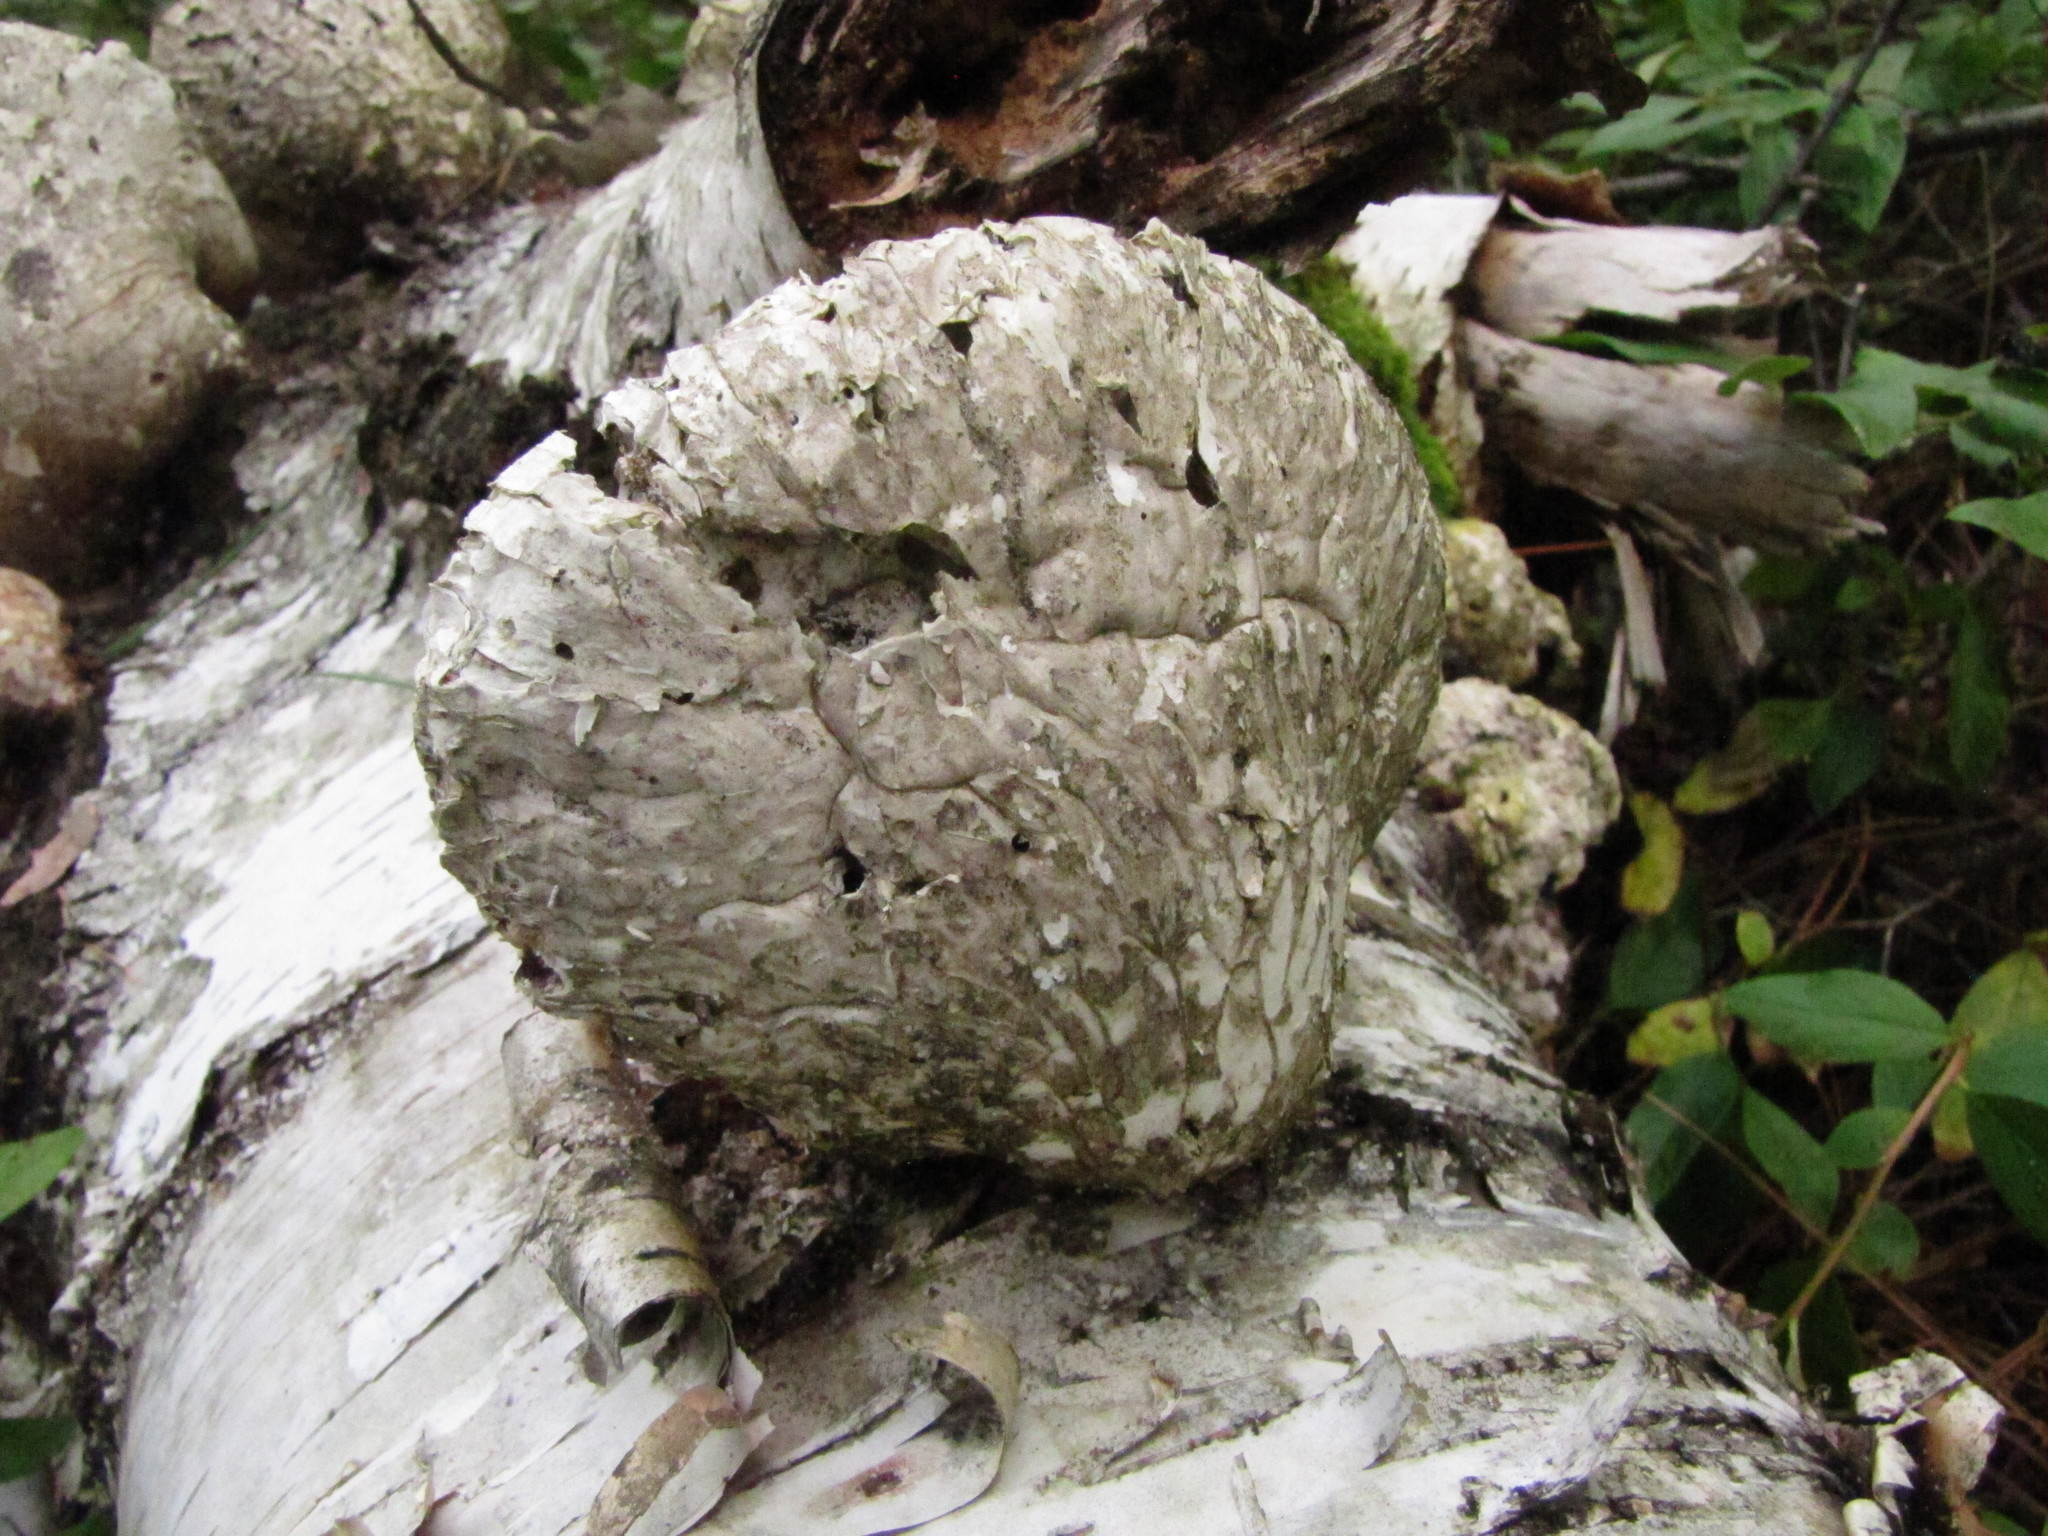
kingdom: Fungi
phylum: Basidiomycota
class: Agaricomycetes
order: Polyporales
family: Fomitopsidaceae
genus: Fomitopsis
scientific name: Fomitopsis betulina
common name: Birch polypore
